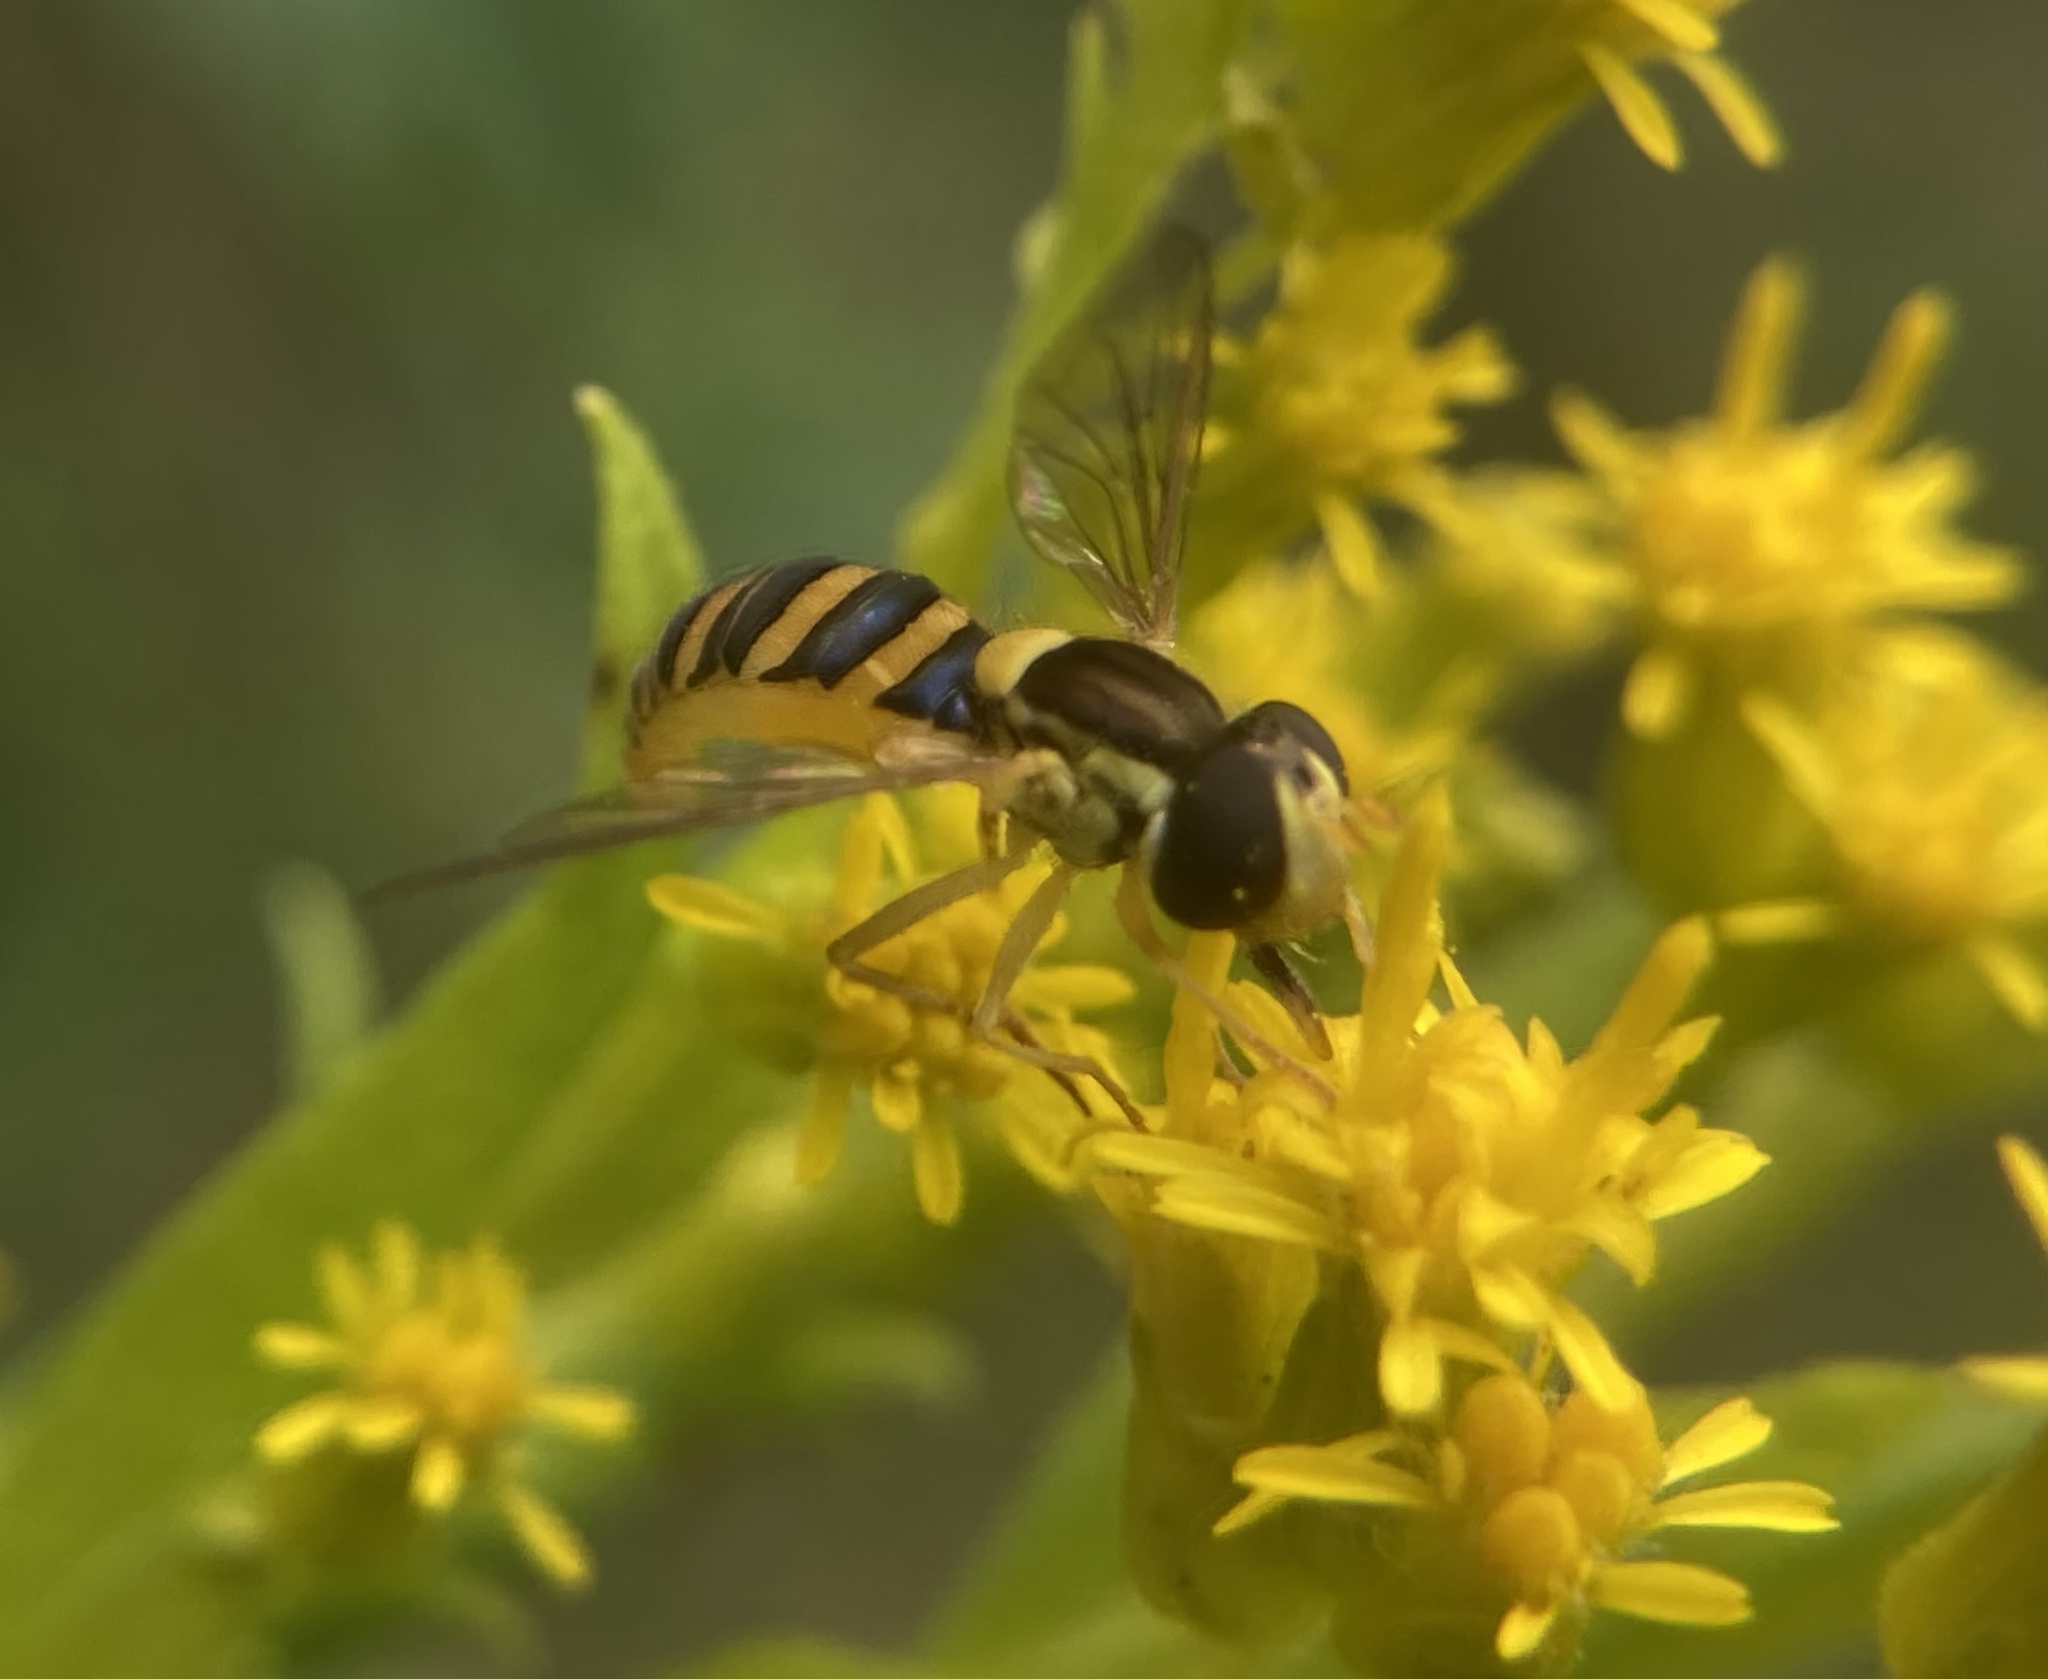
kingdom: Animalia
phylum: Arthropoda
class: Insecta
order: Diptera
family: Syrphidae
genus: Sphaerophoria
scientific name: Sphaerophoria
